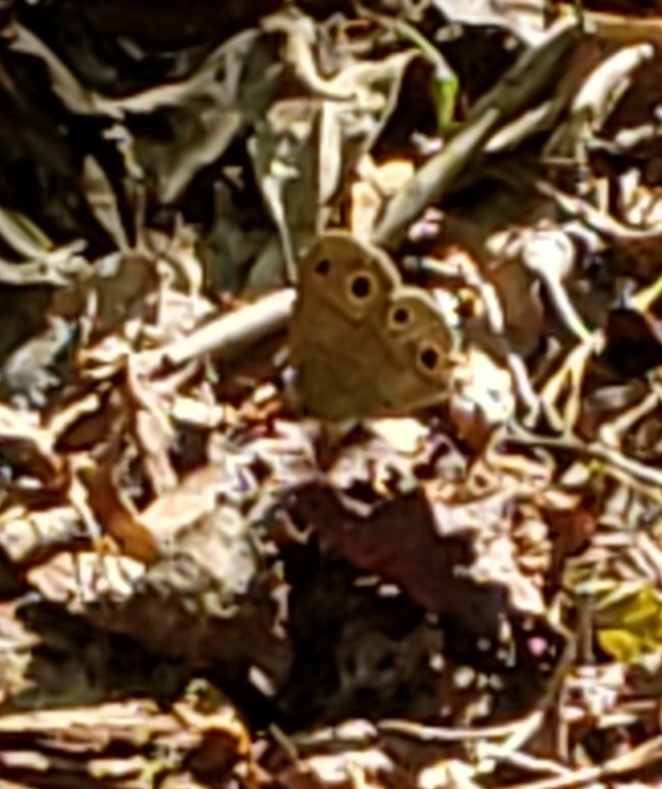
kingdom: Animalia
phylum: Arthropoda
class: Insecta
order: Lepidoptera
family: Nymphalidae
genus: Euptychia
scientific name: Euptychia cymela
